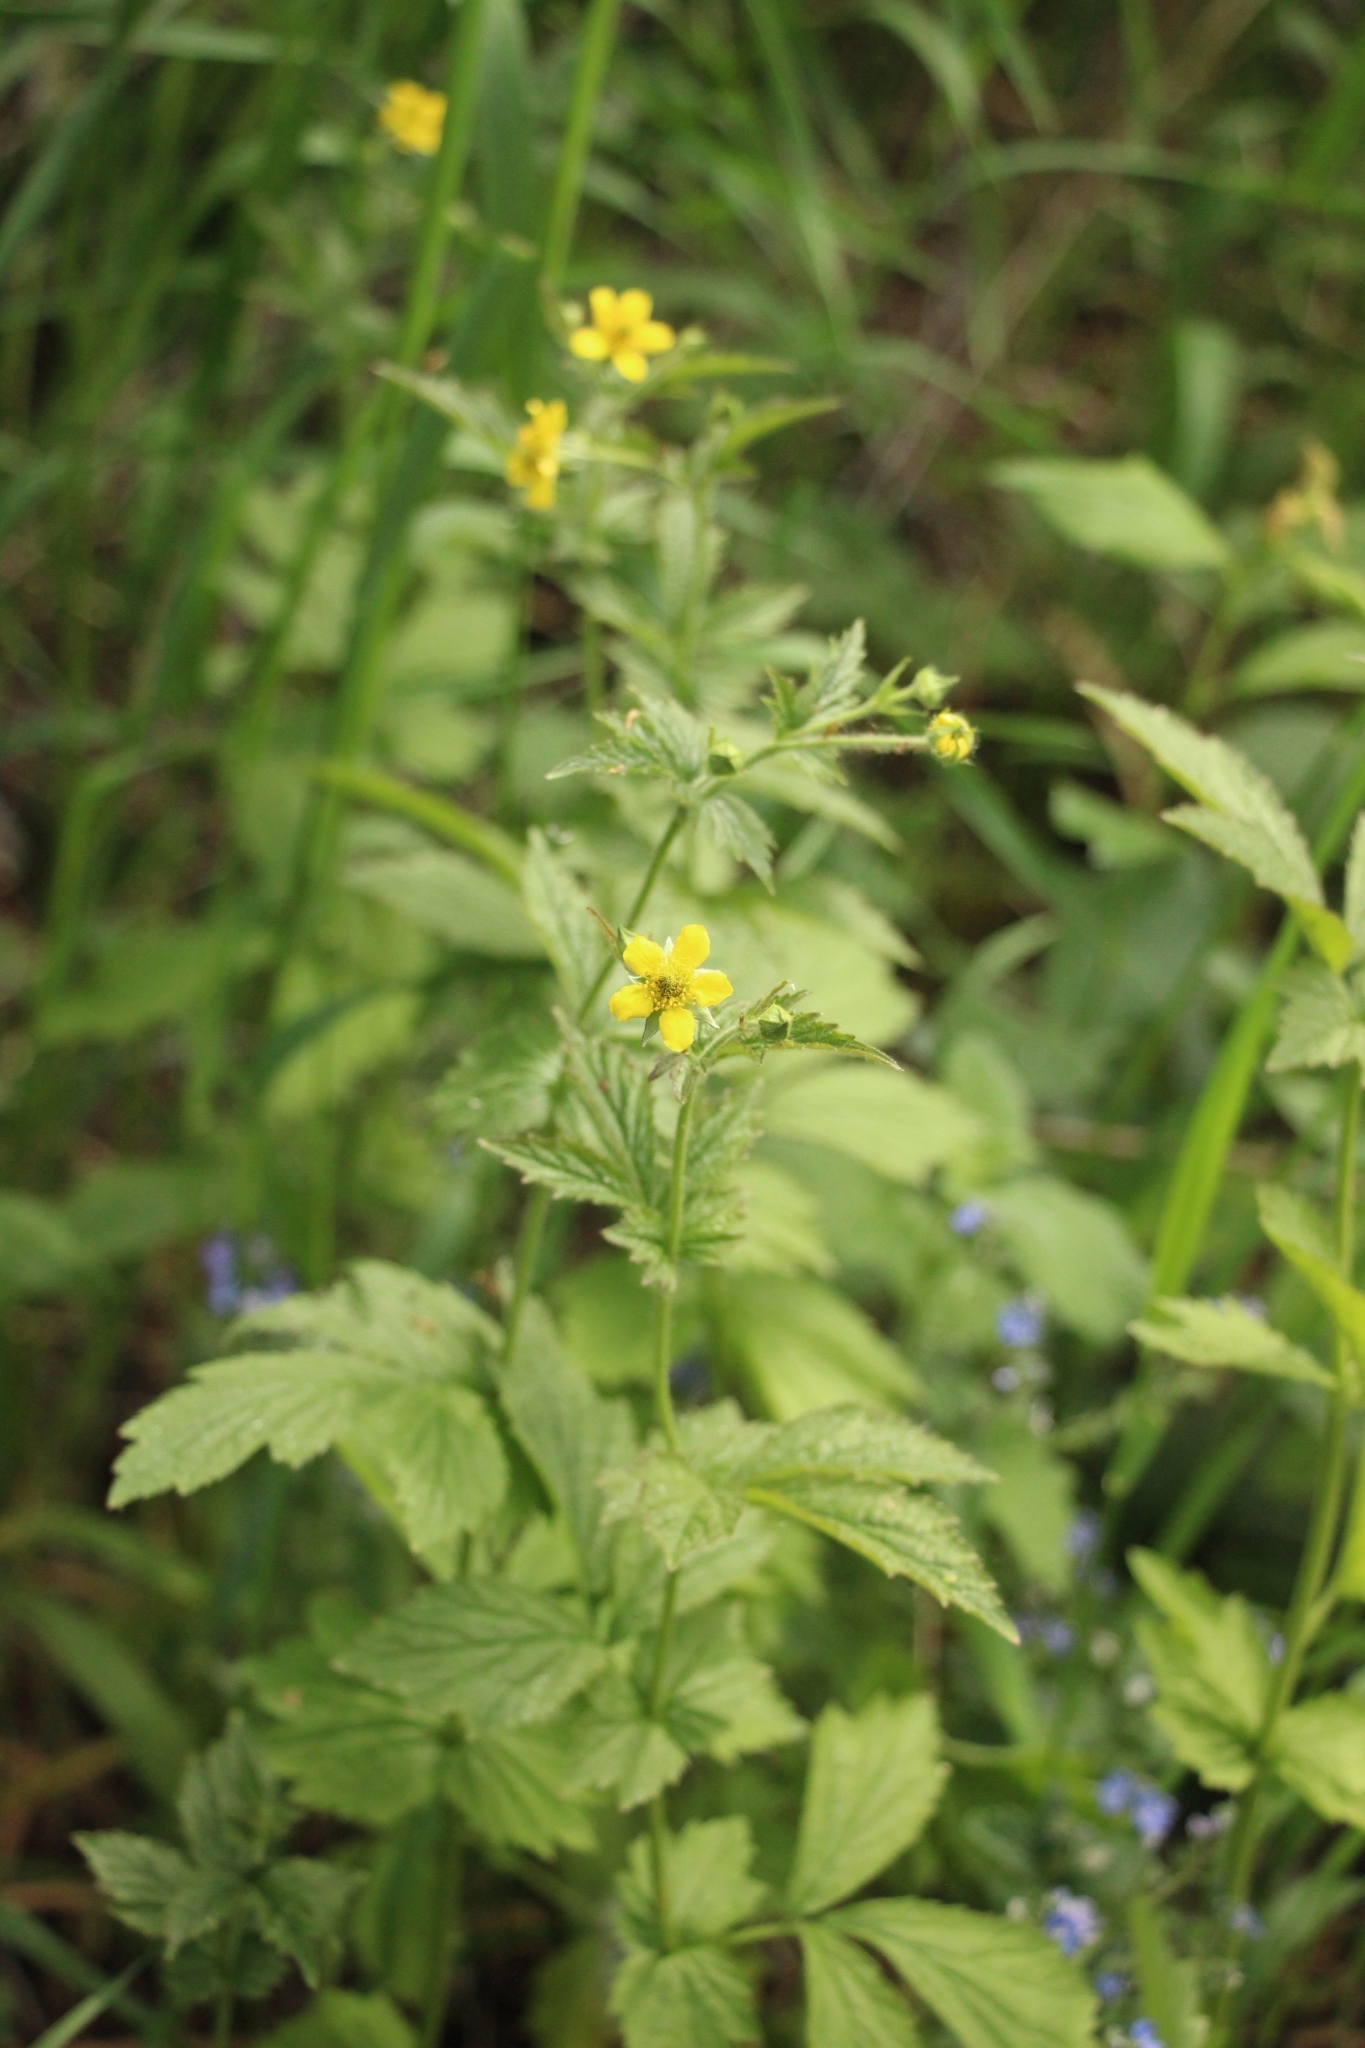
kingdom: Plantae
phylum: Tracheophyta
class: Magnoliopsida
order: Rosales
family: Rosaceae
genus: Geum
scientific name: Geum urbanum
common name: Wood avens
